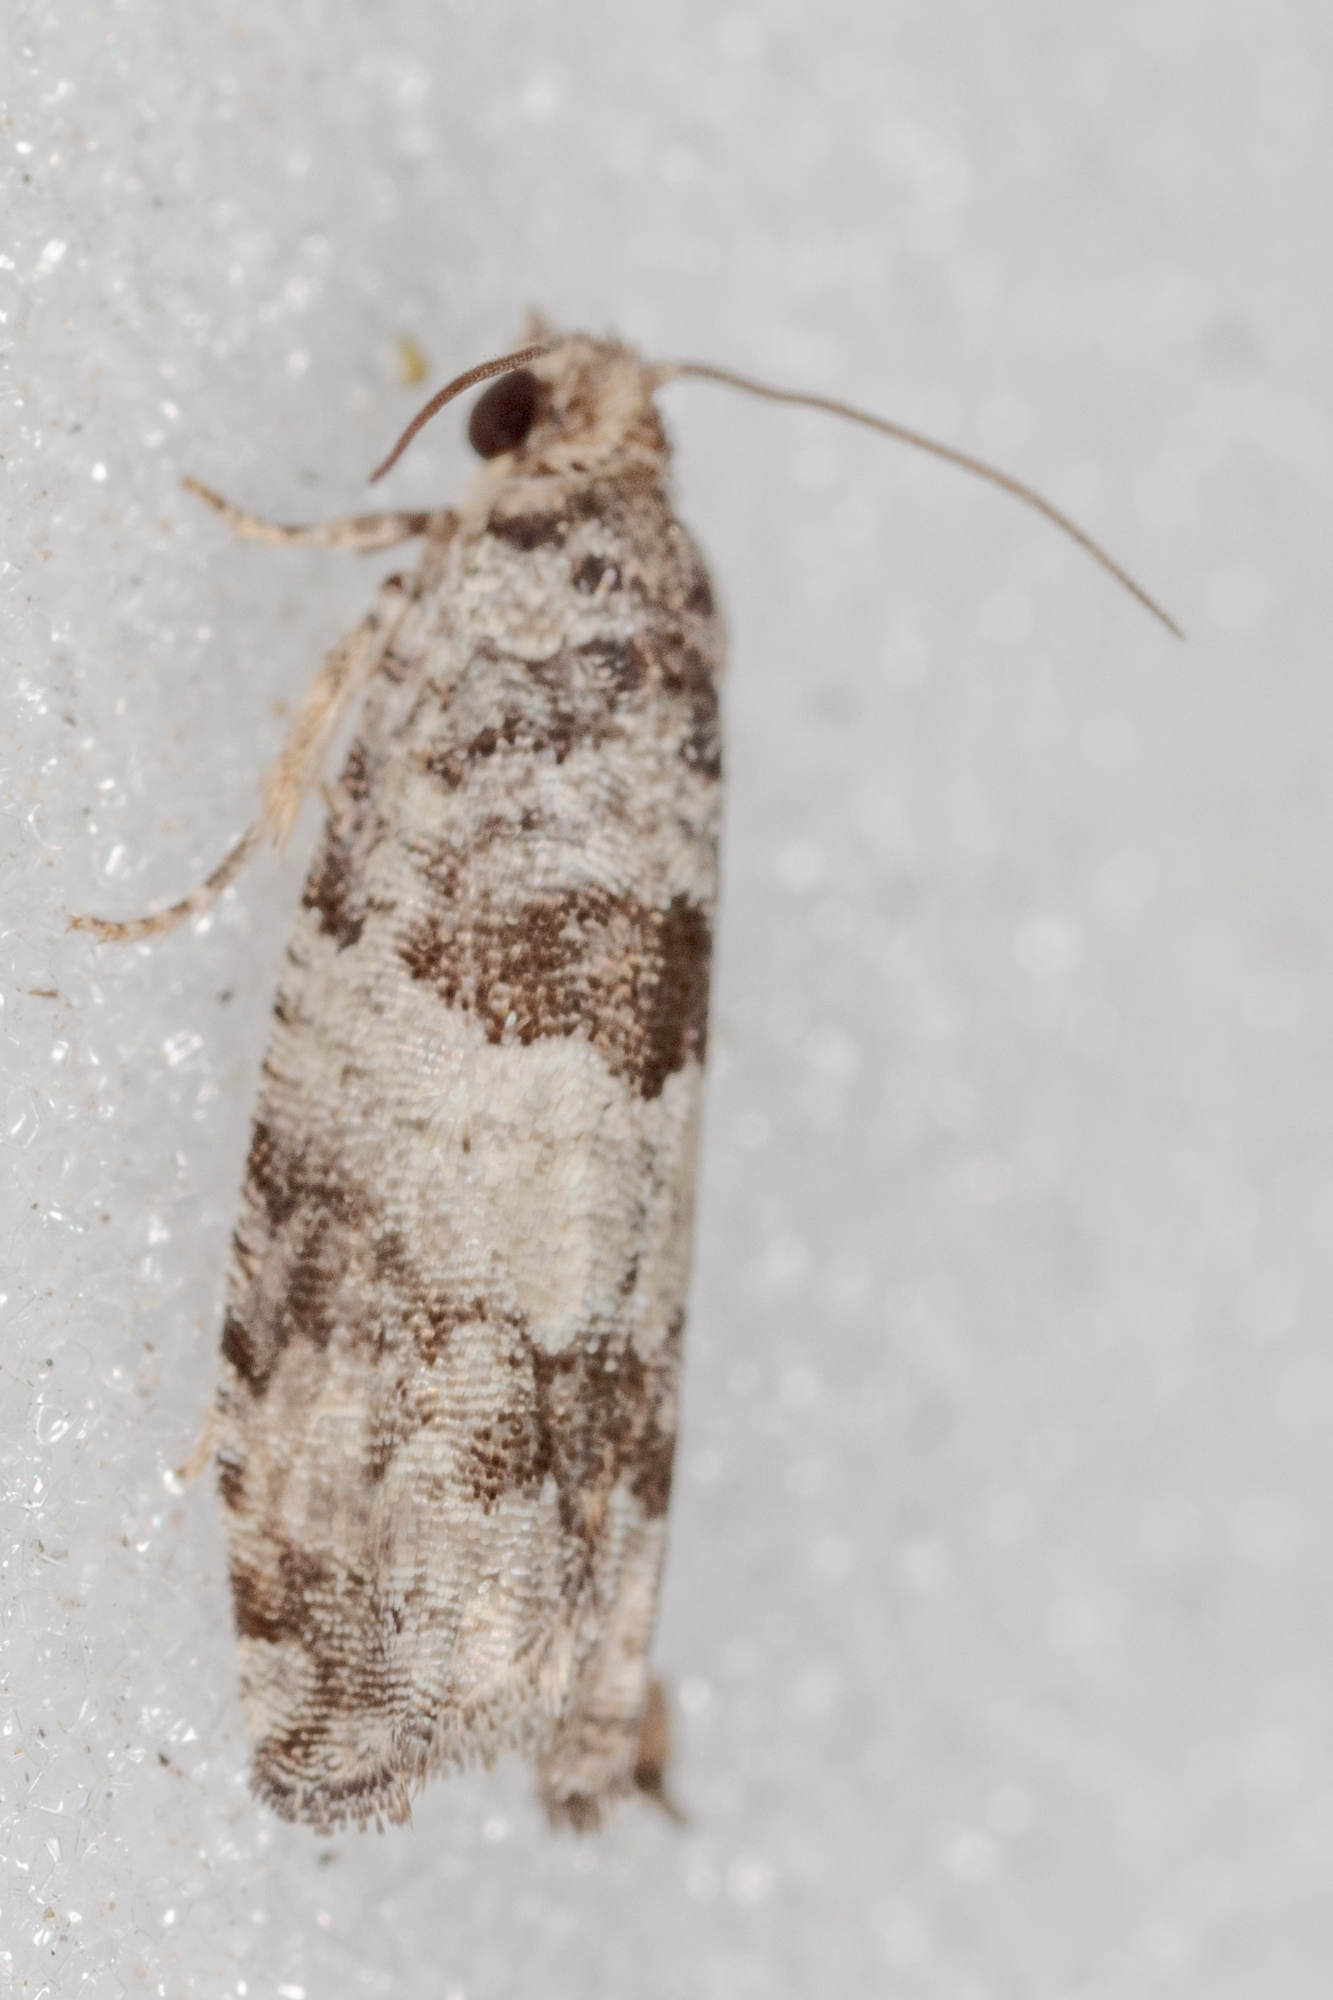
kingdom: Animalia
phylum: Arthropoda
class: Insecta
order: Lepidoptera
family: Tortricidae
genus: Pseudexentera
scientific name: Pseudexentera knudsoni
